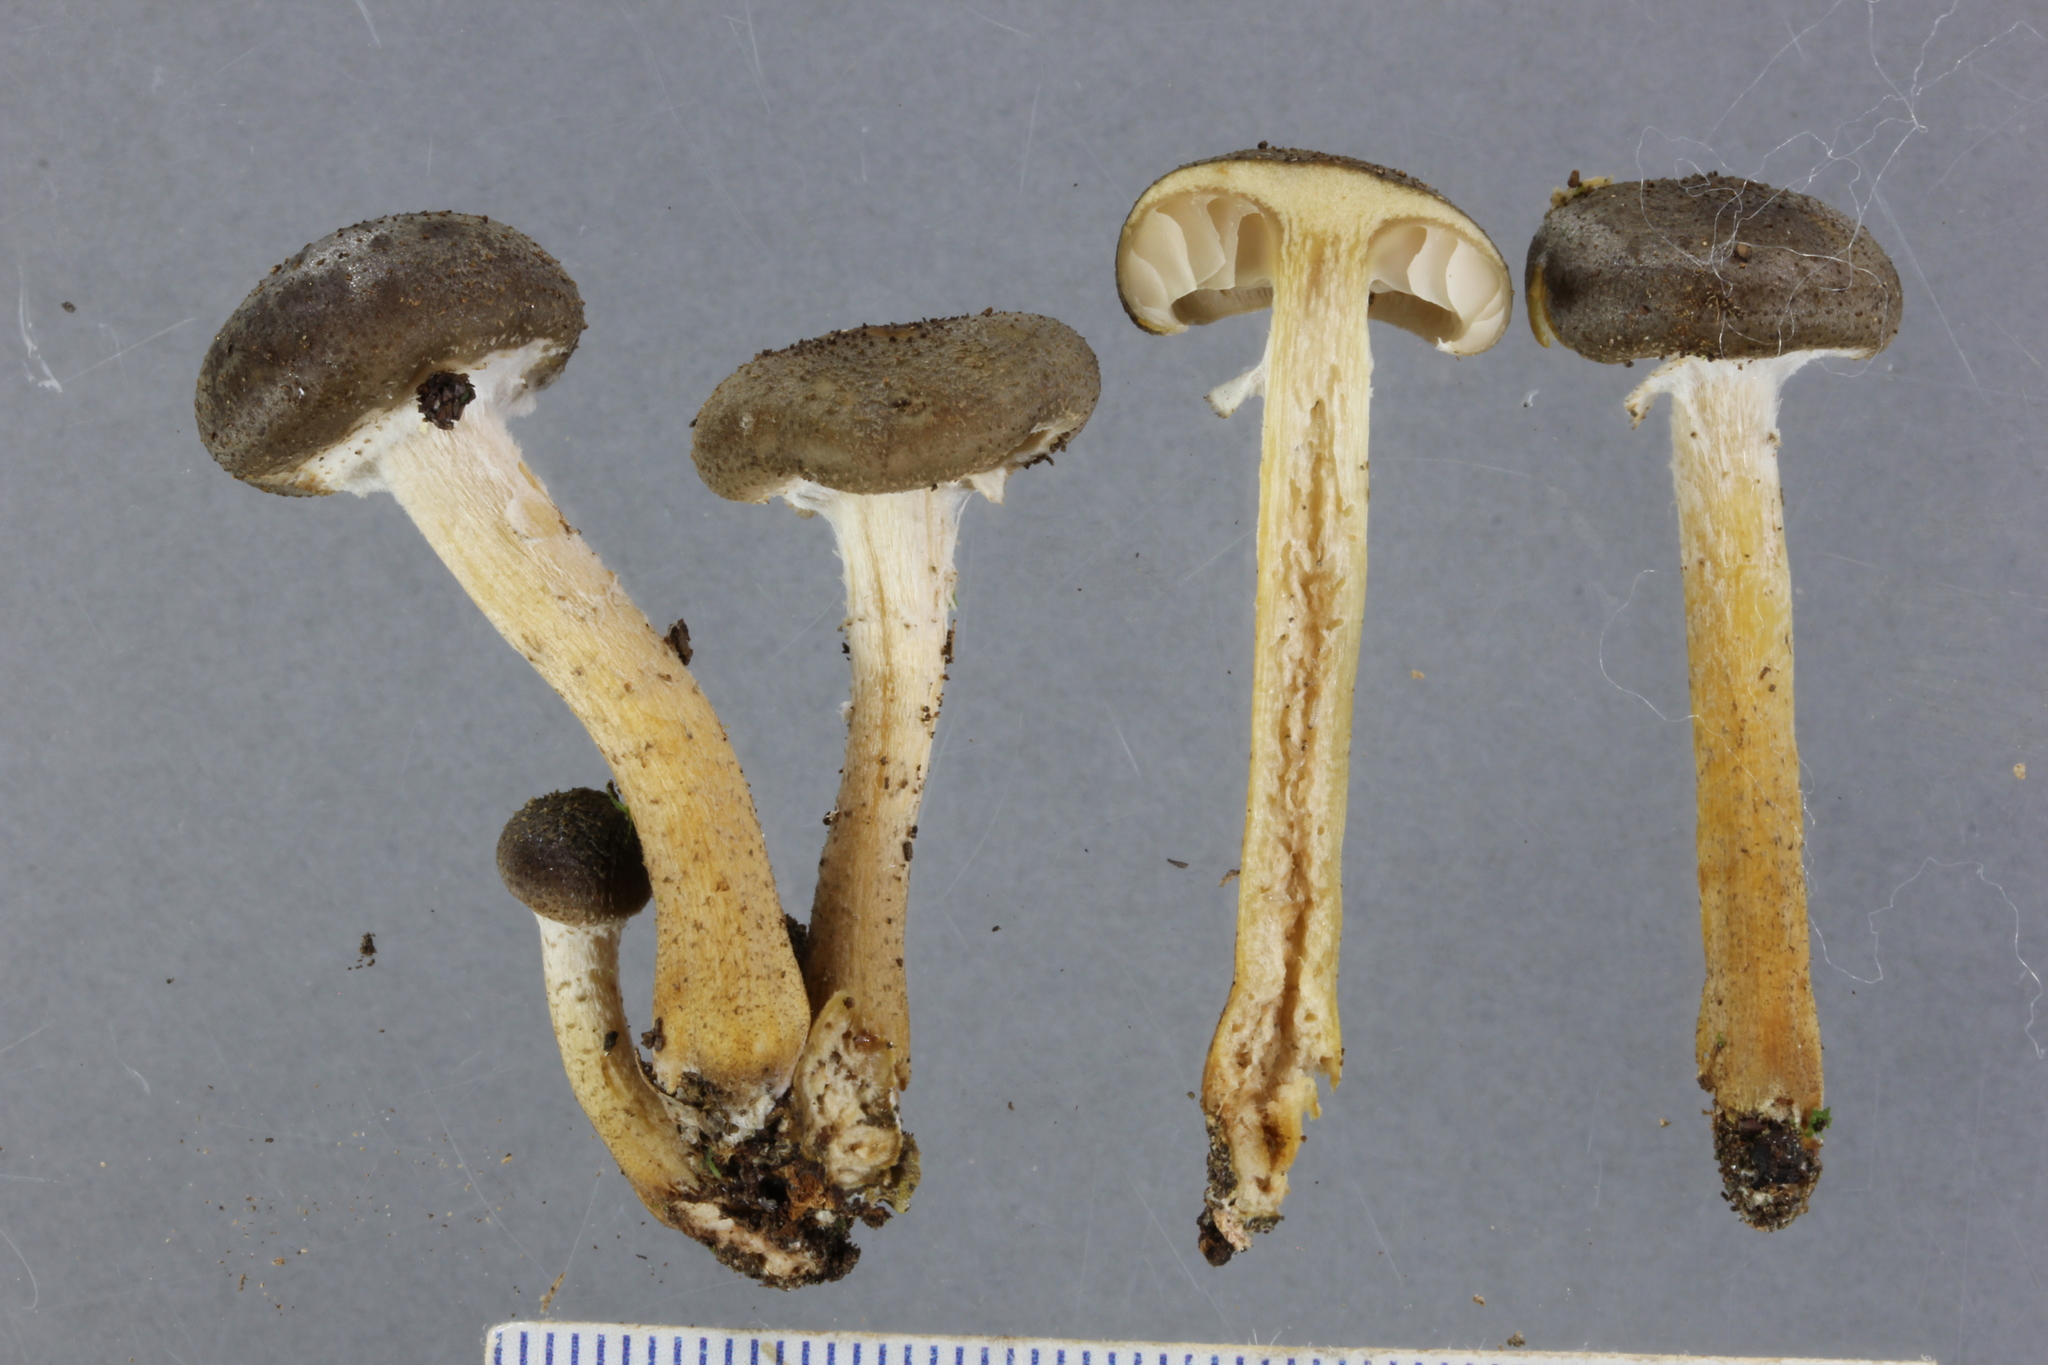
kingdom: Fungi
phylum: Basidiomycota
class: Agaricomycetes
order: Agaricales
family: Physalacriaceae
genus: Armillaria
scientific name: Armillaria novae-zelandiae
